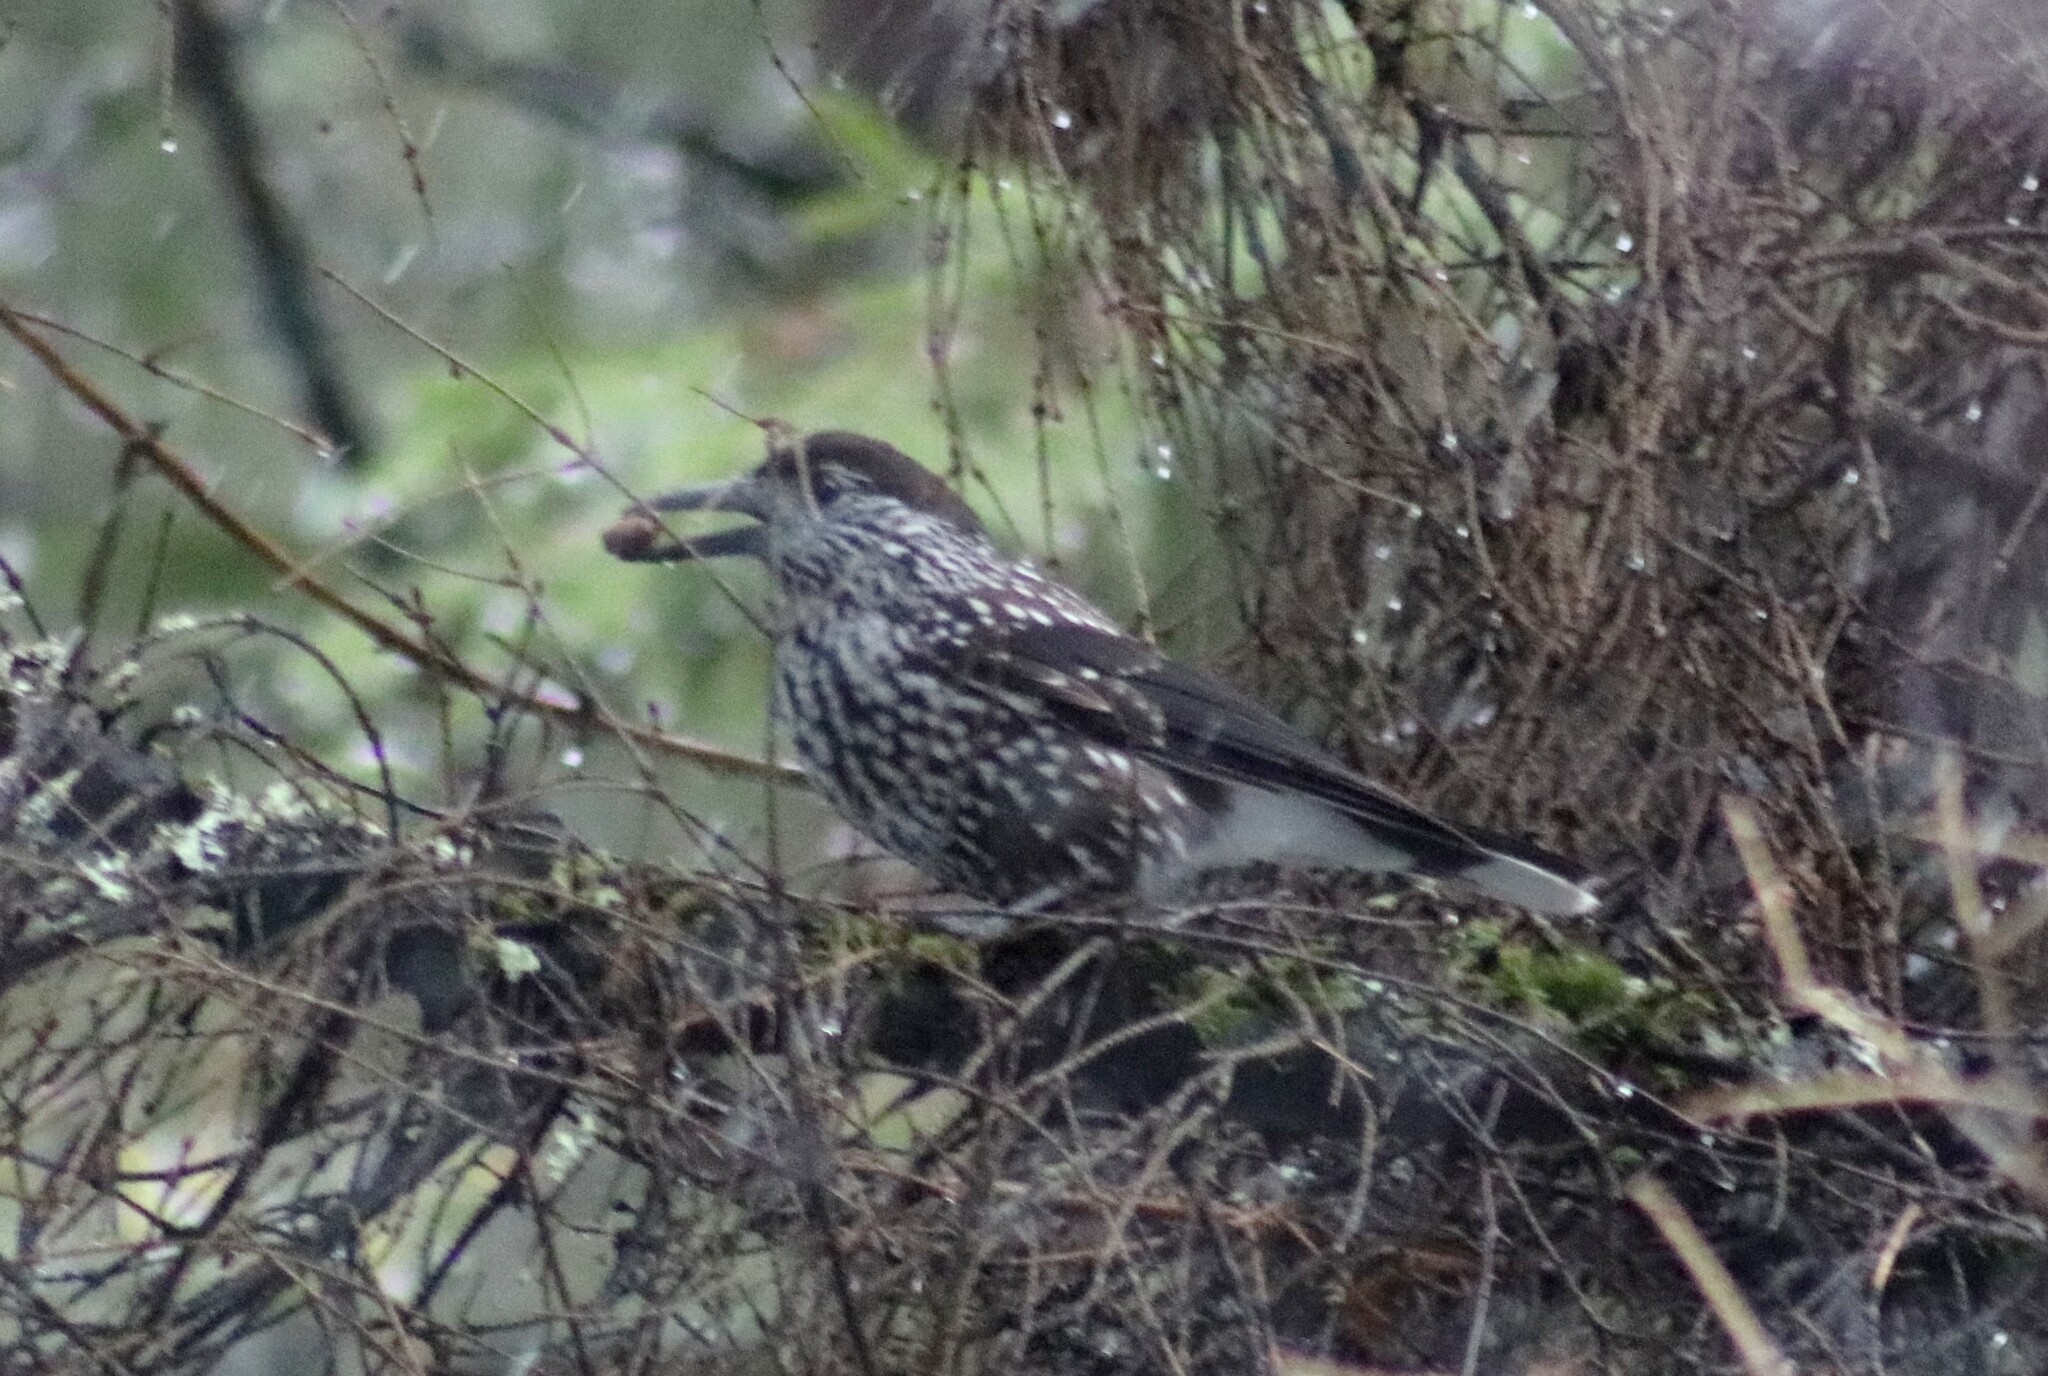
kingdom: Animalia
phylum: Chordata
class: Aves
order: Passeriformes
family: Corvidae
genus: Nucifraga
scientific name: Nucifraga caryocatactes
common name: Spotted nutcracker
